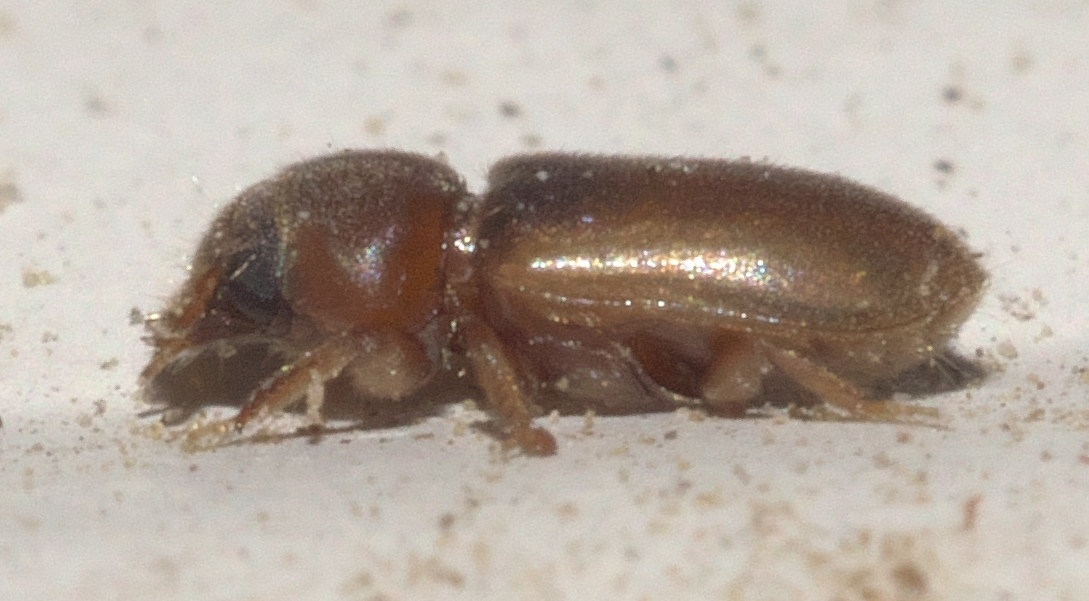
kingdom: Animalia
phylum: Arthropoda
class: Insecta
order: Coleoptera
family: Heteroceridae
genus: Tropicus
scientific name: Tropicus pusillus
